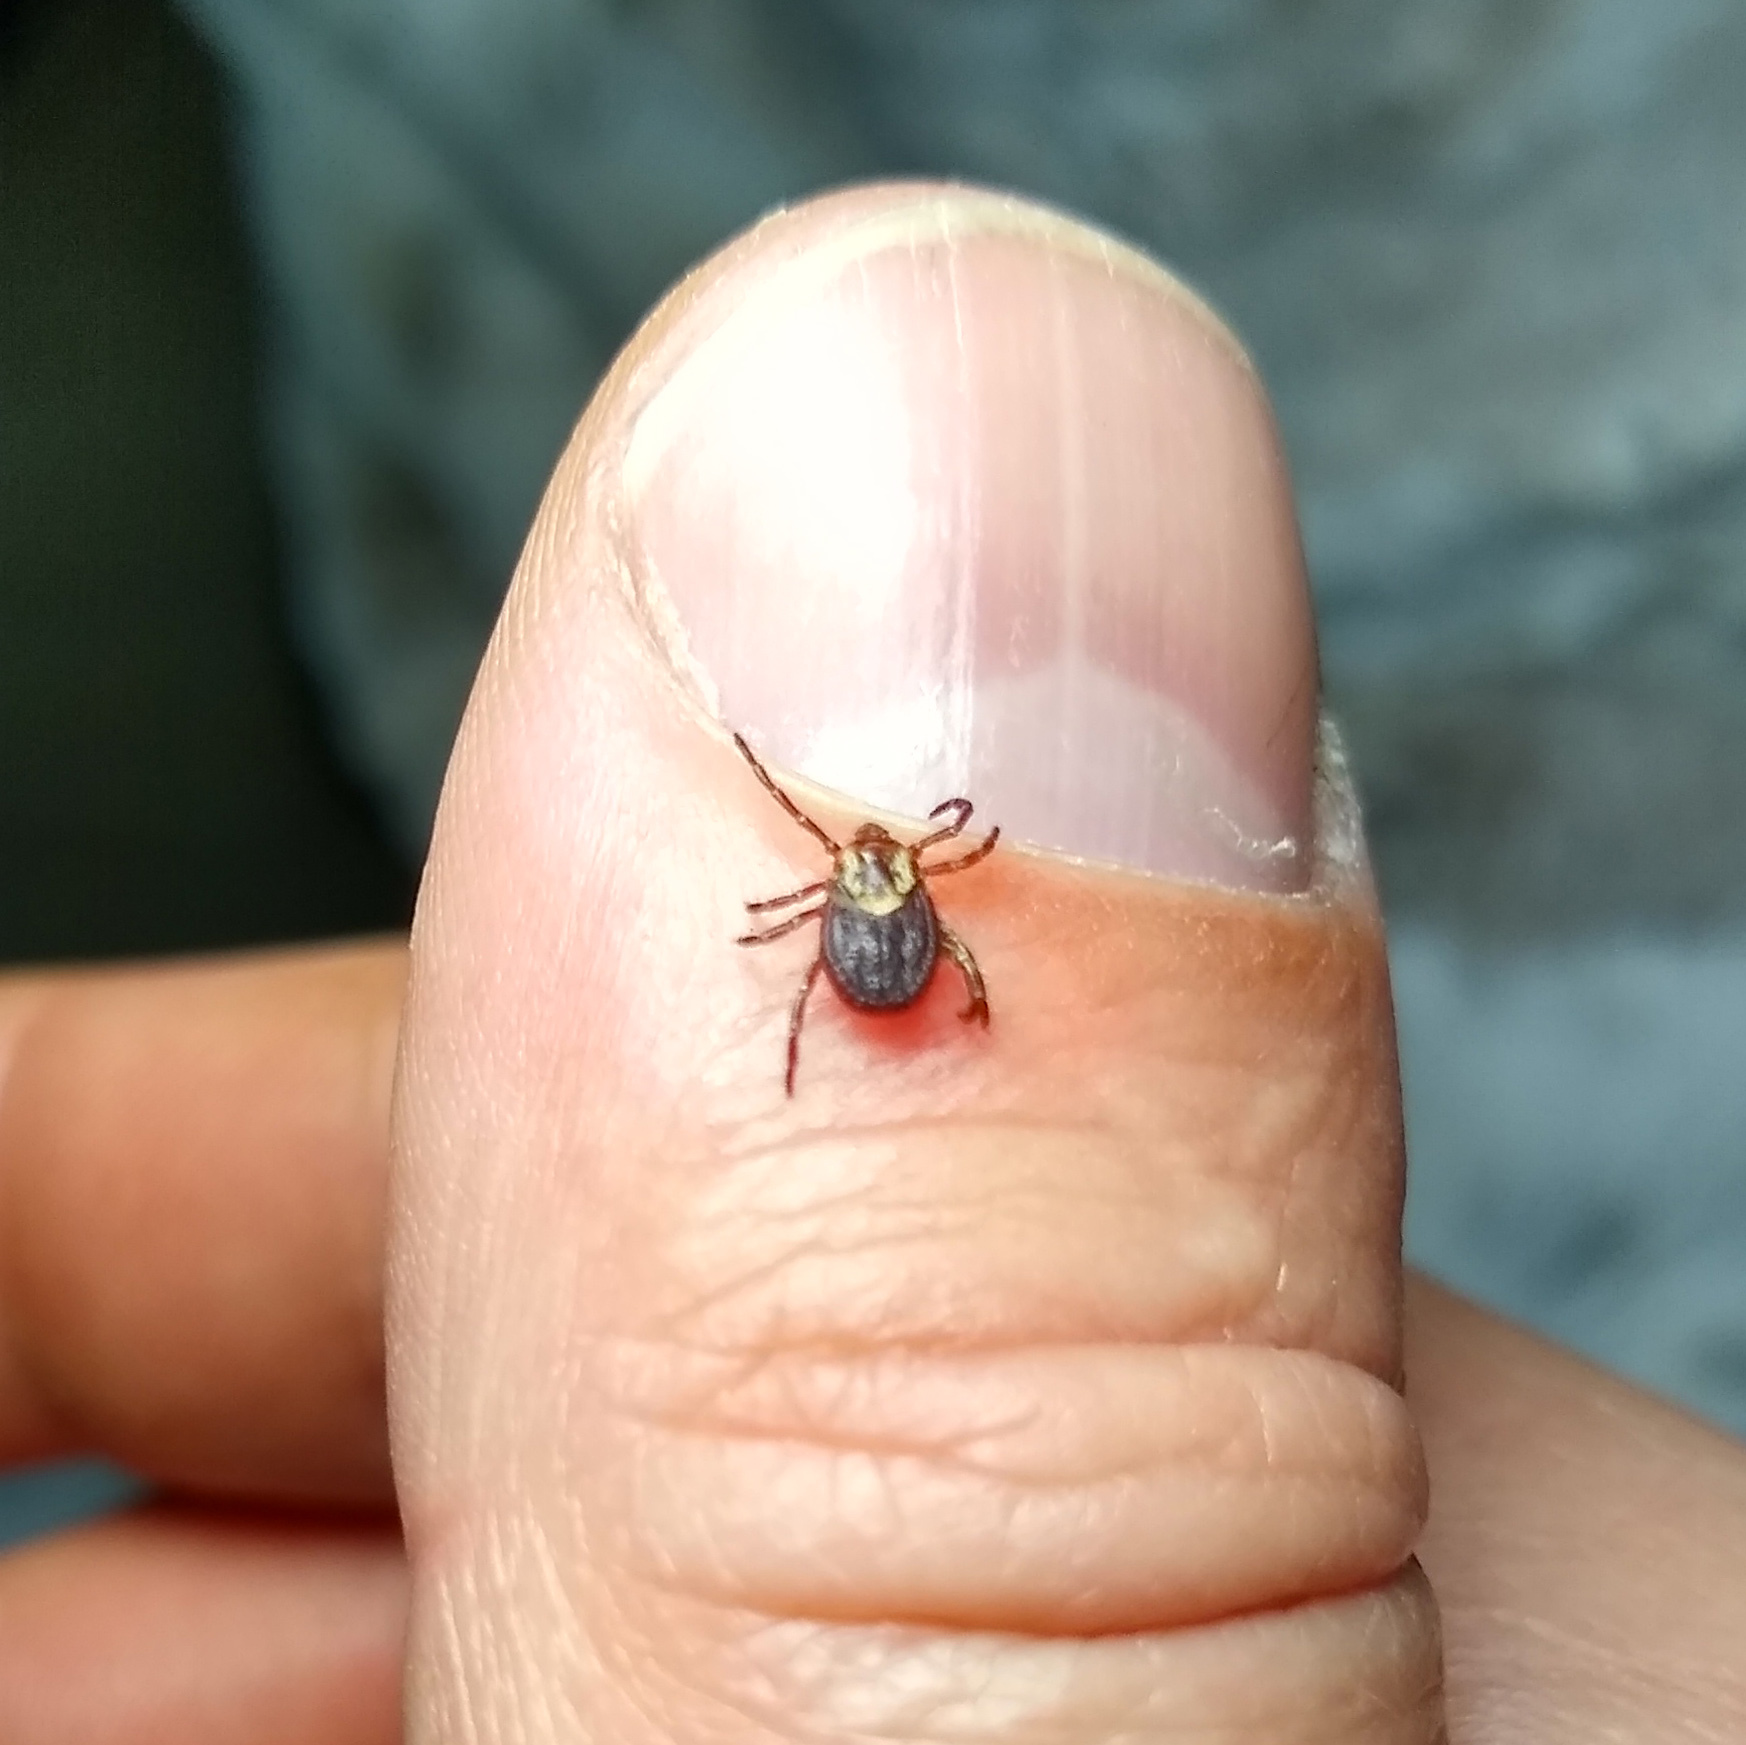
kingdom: Animalia
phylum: Arthropoda
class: Arachnida
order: Ixodida
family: Ixodidae
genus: Dermacentor
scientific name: Dermacentor variabilis
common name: American dog tick
